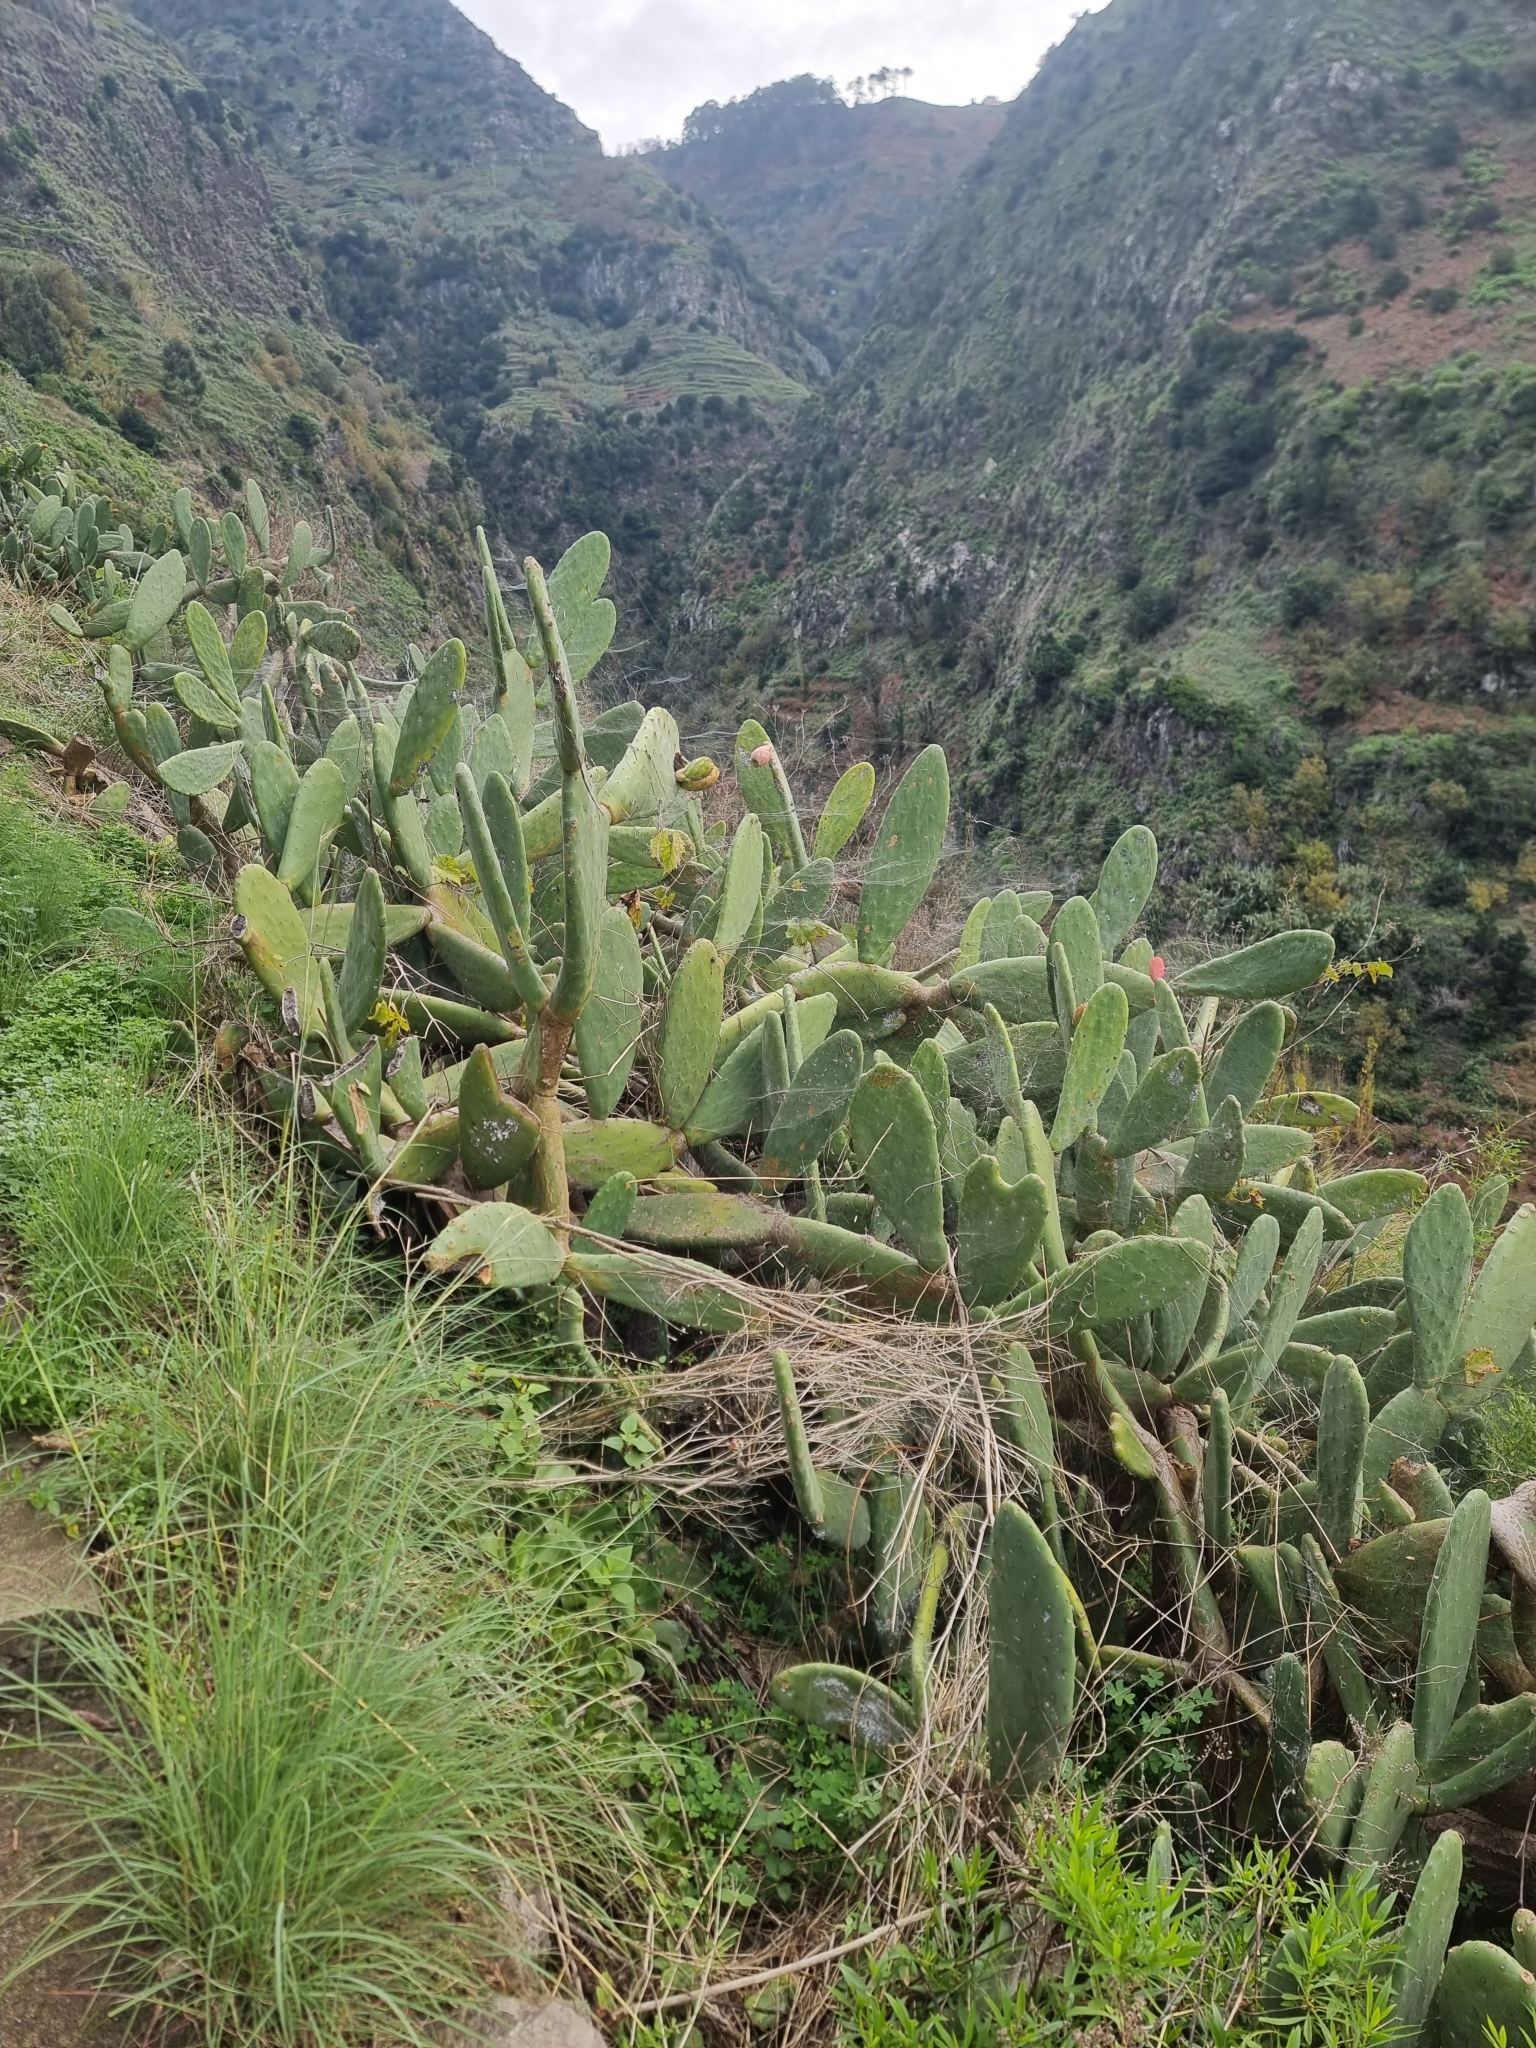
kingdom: Plantae
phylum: Tracheophyta
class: Magnoliopsida
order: Caryophyllales
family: Cactaceae
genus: Opuntia
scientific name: Opuntia ficus-indica
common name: Barbary fig
